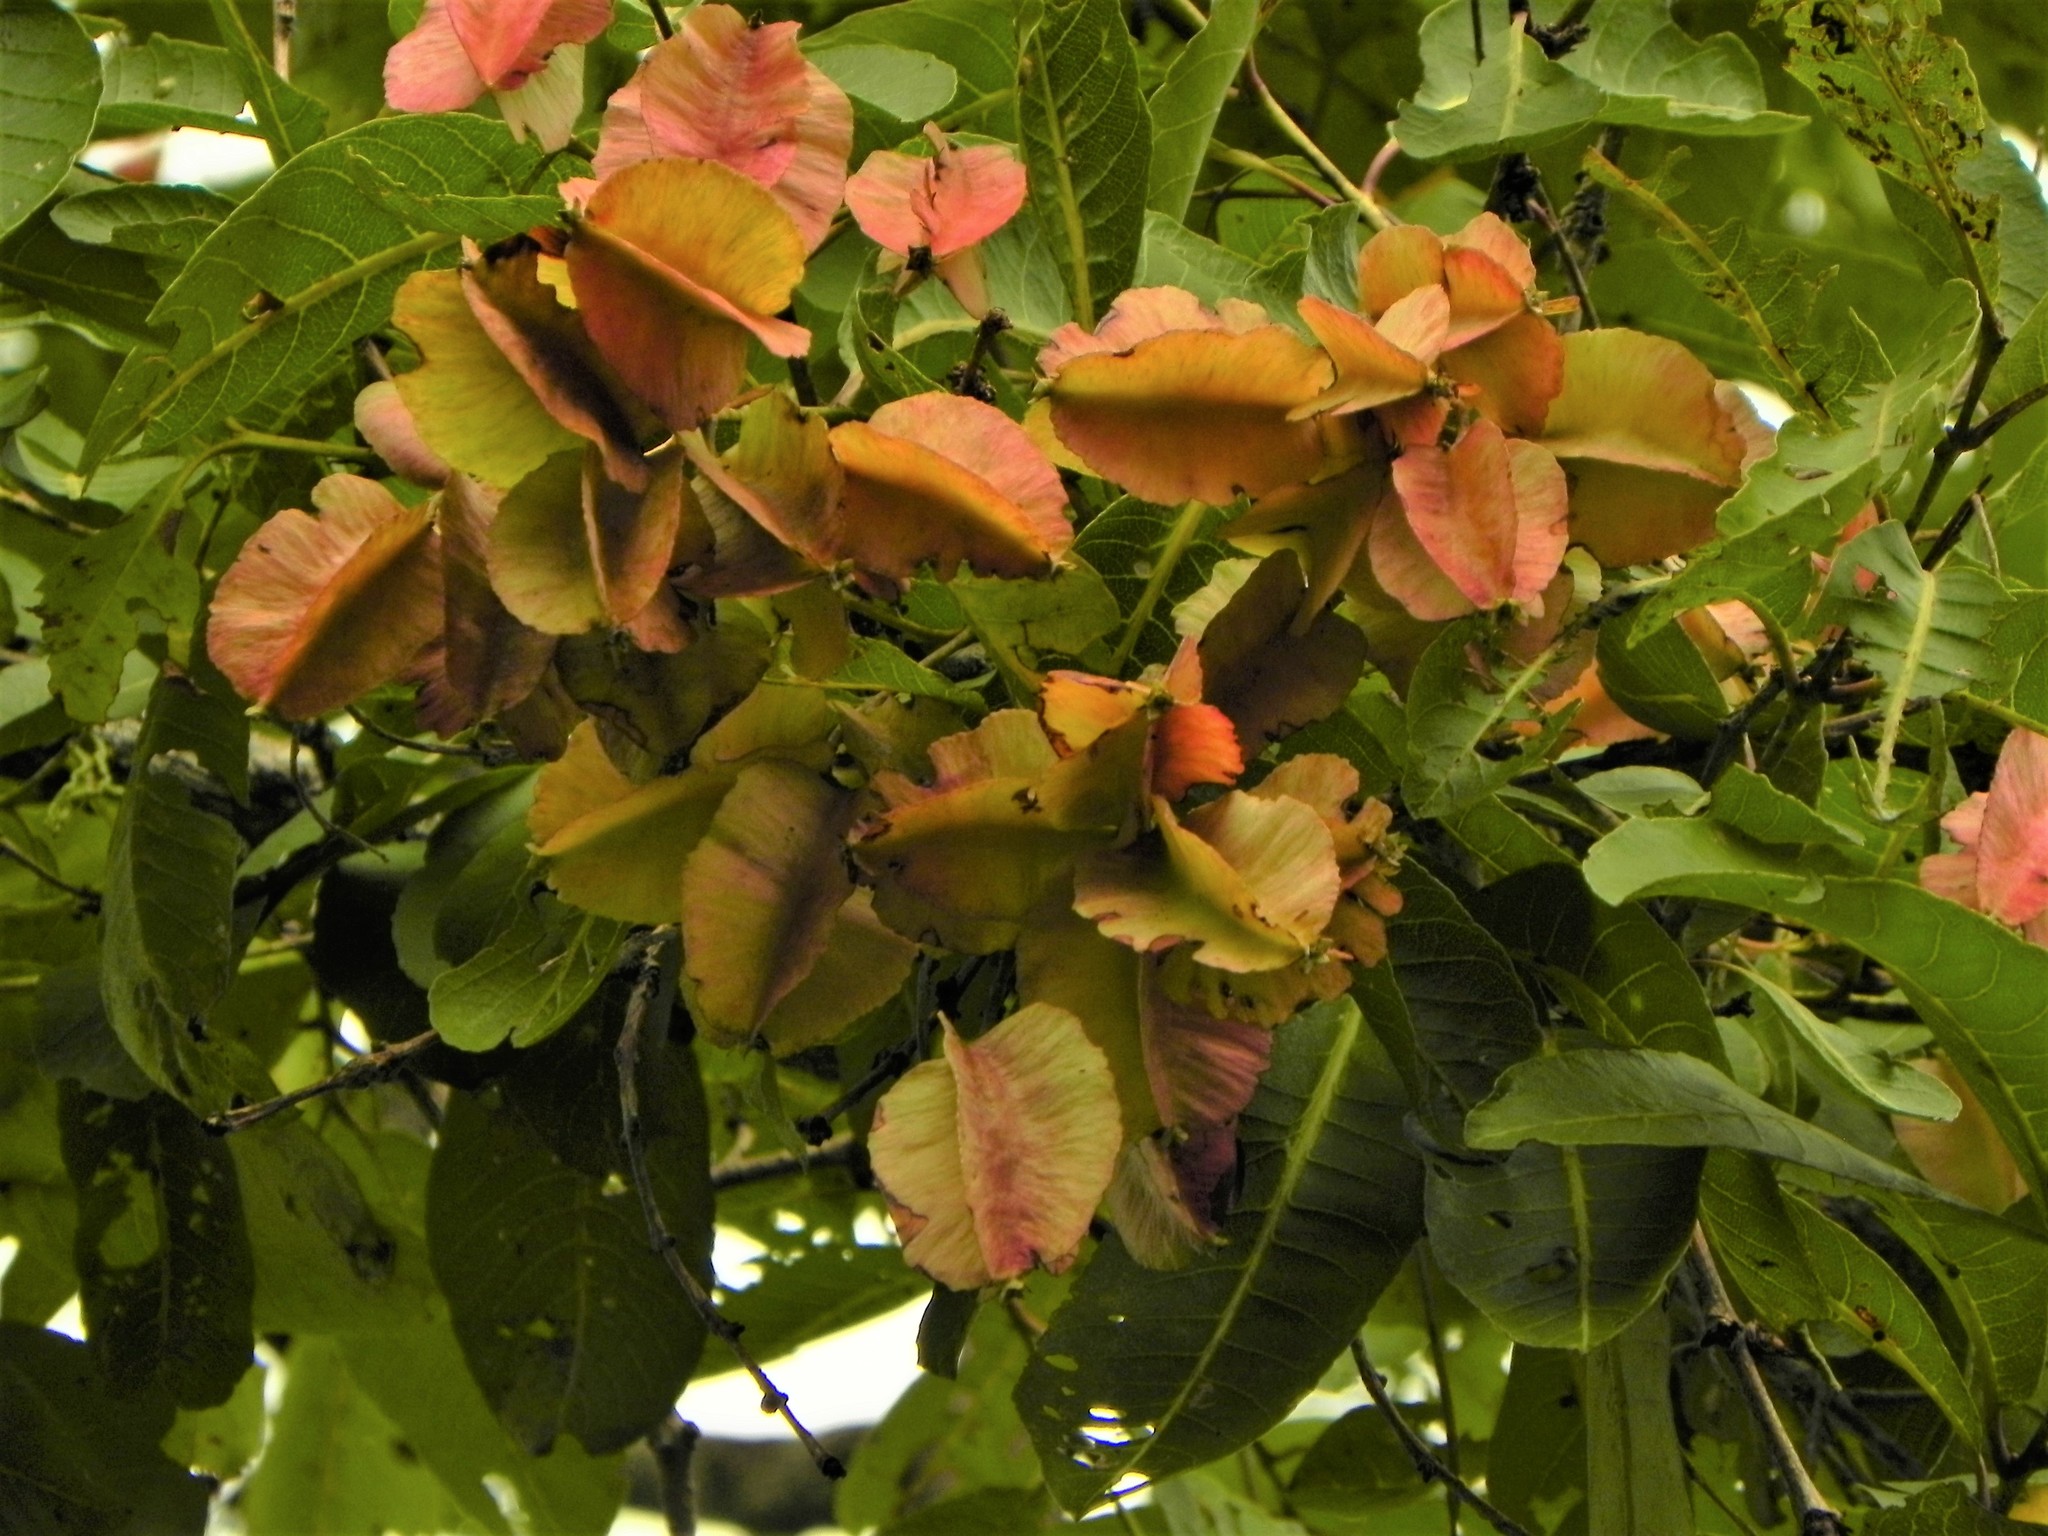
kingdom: Plantae
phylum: Tracheophyta
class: Magnoliopsida
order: Myrtales
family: Combretaceae
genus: Terminalia
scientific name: Terminalia elliptica
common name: Indian-laurel
